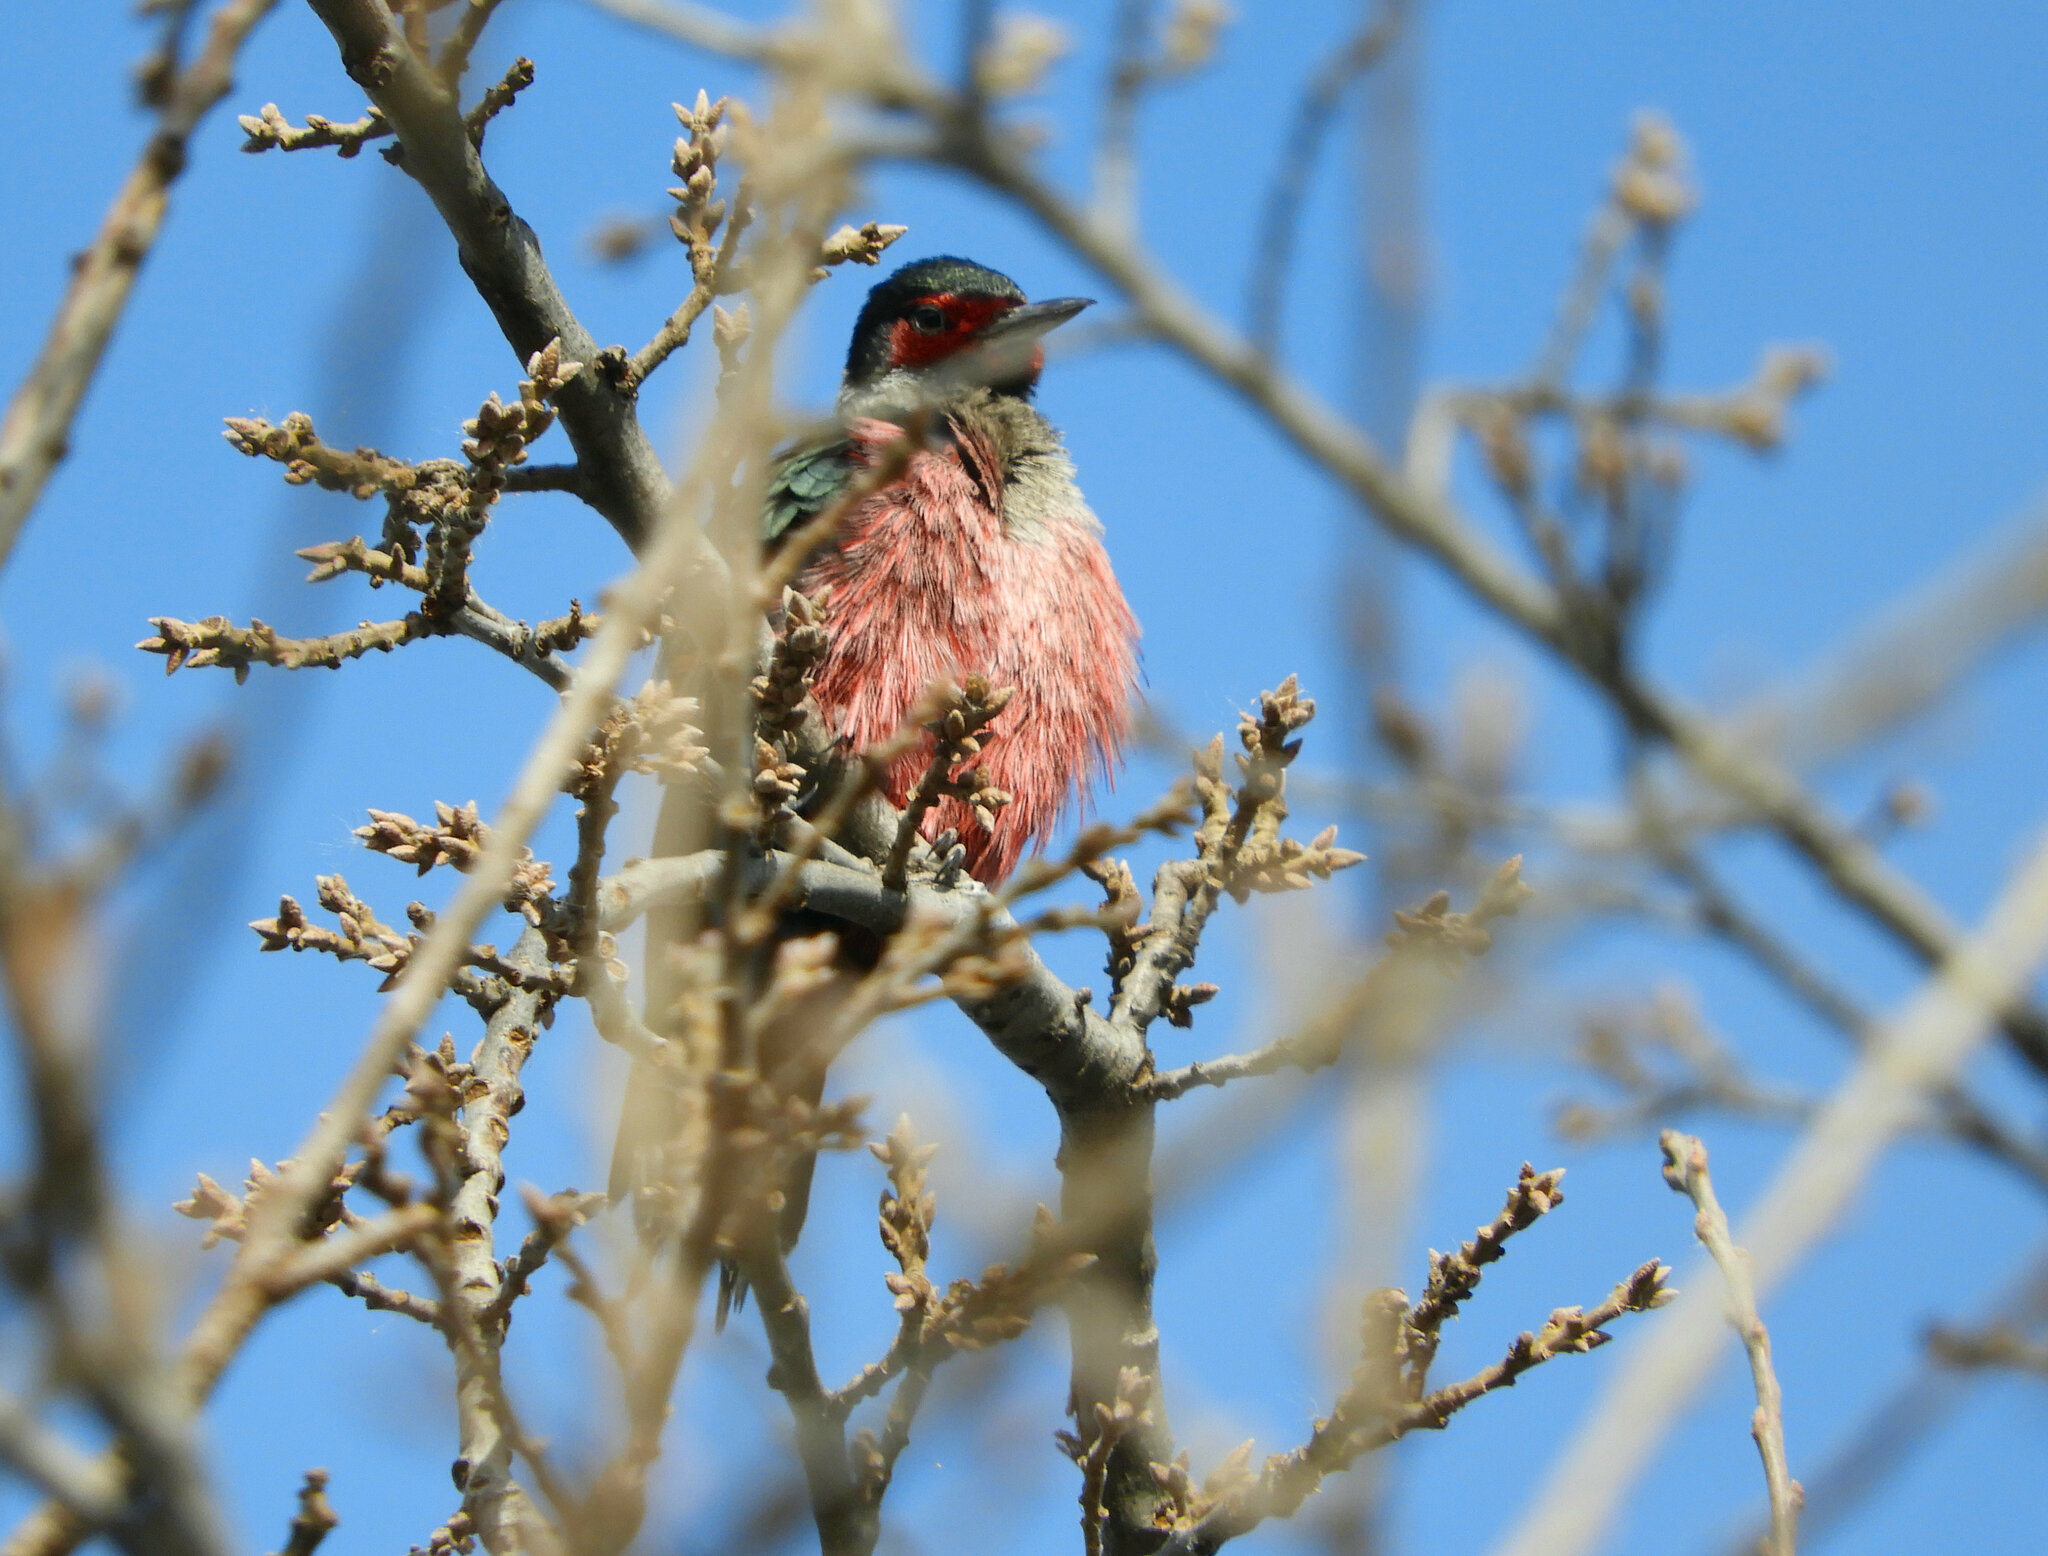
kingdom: Animalia
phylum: Chordata
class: Aves
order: Piciformes
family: Picidae
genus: Melanerpes
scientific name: Melanerpes lewis
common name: Lewis's woodpecker
